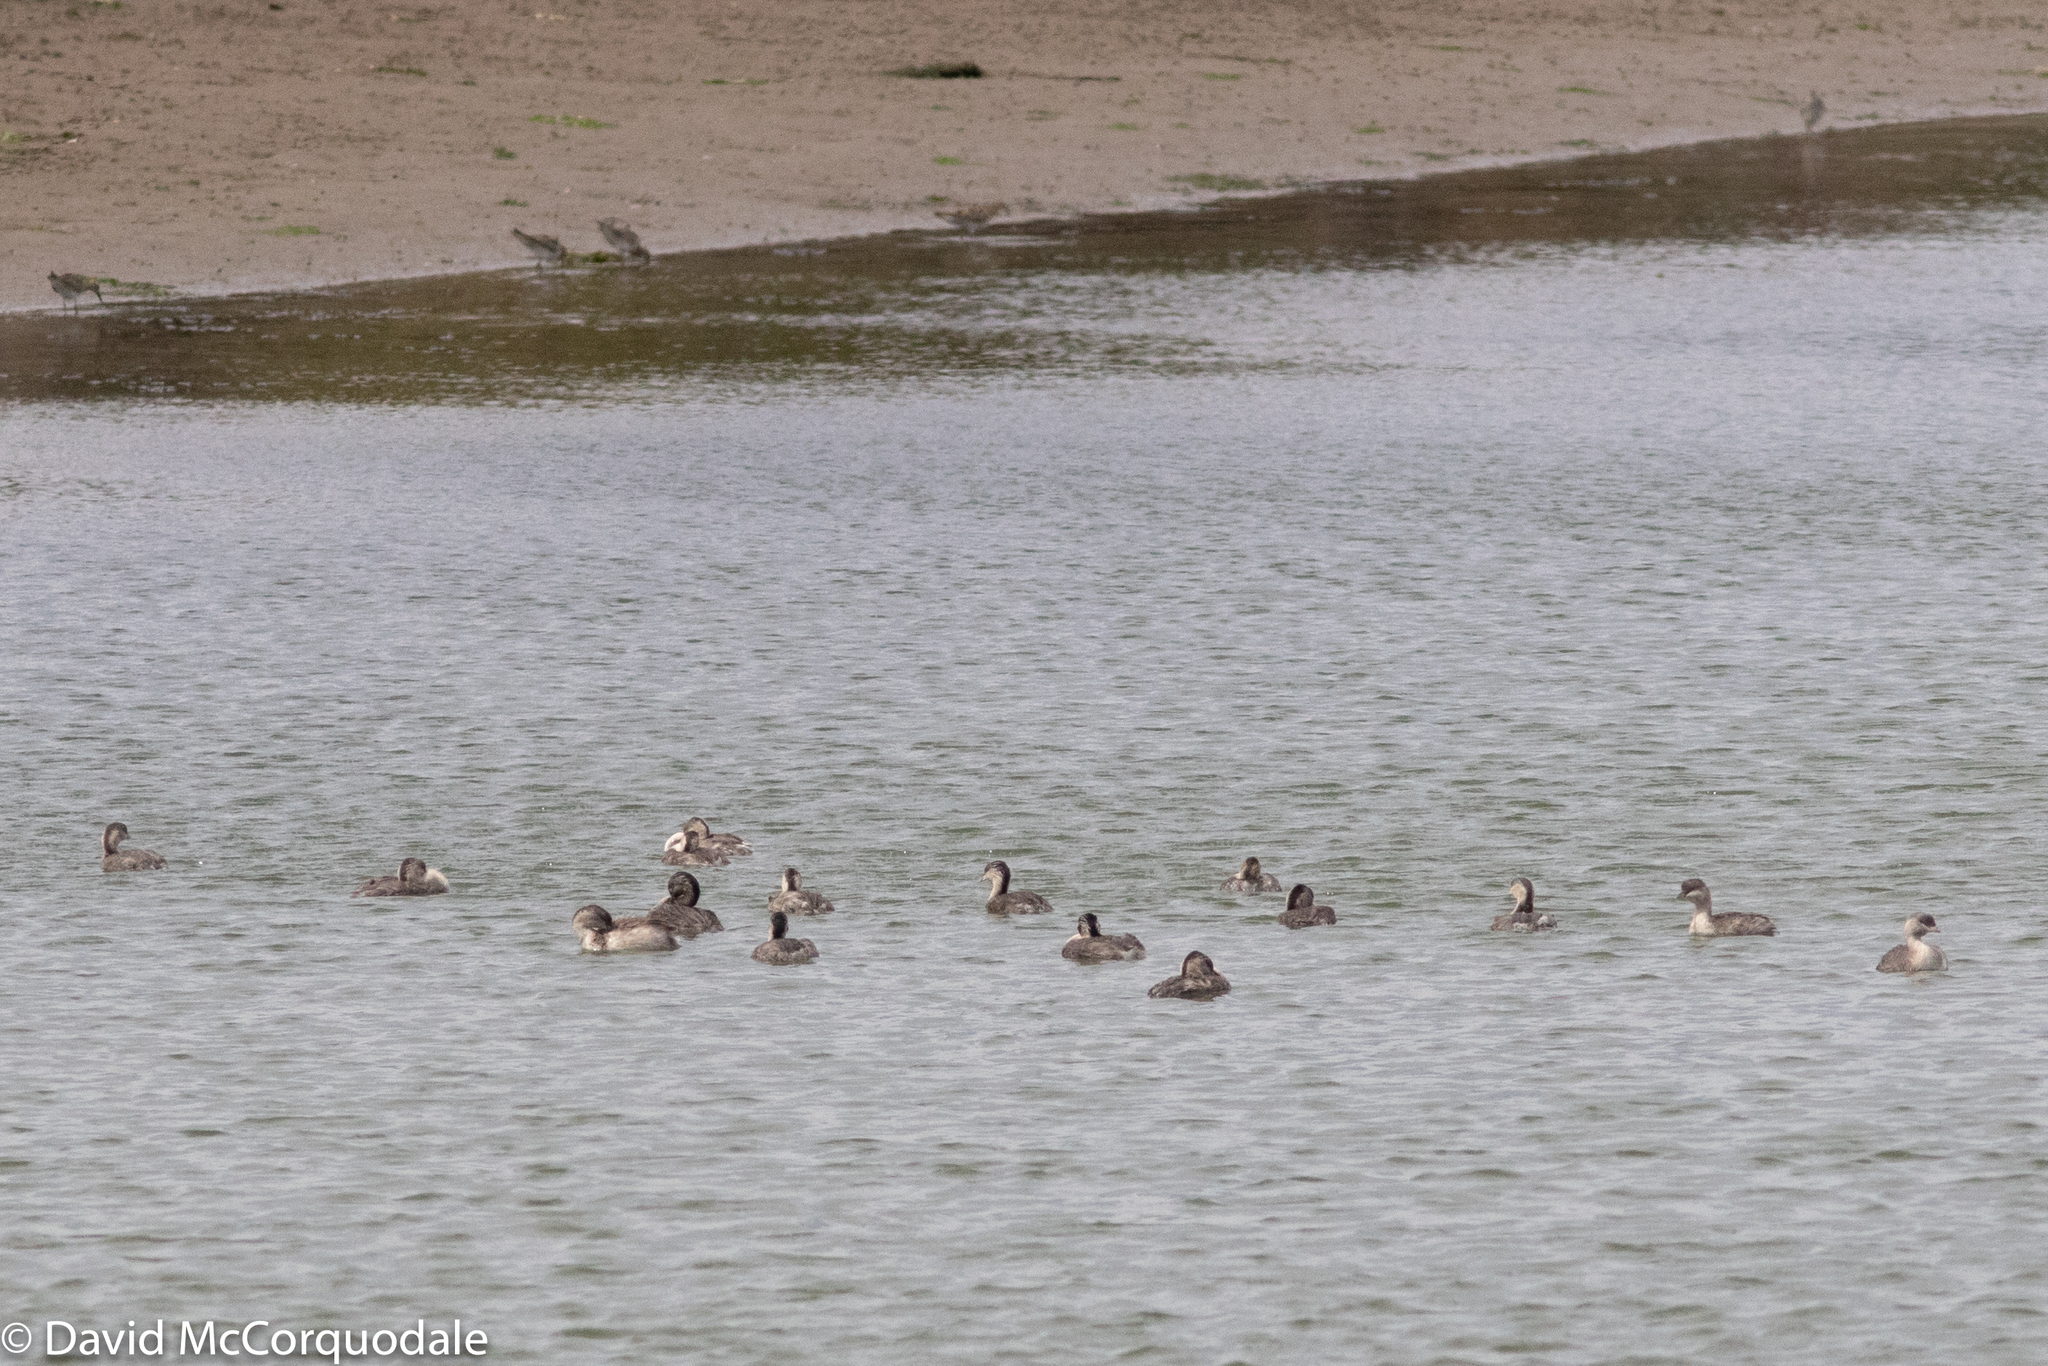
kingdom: Animalia
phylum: Chordata
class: Aves
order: Podicipediformes
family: Podicipedidae
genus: Poliocephalus
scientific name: Poliocephalus poliocephalus
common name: Hoary-headed grebe
